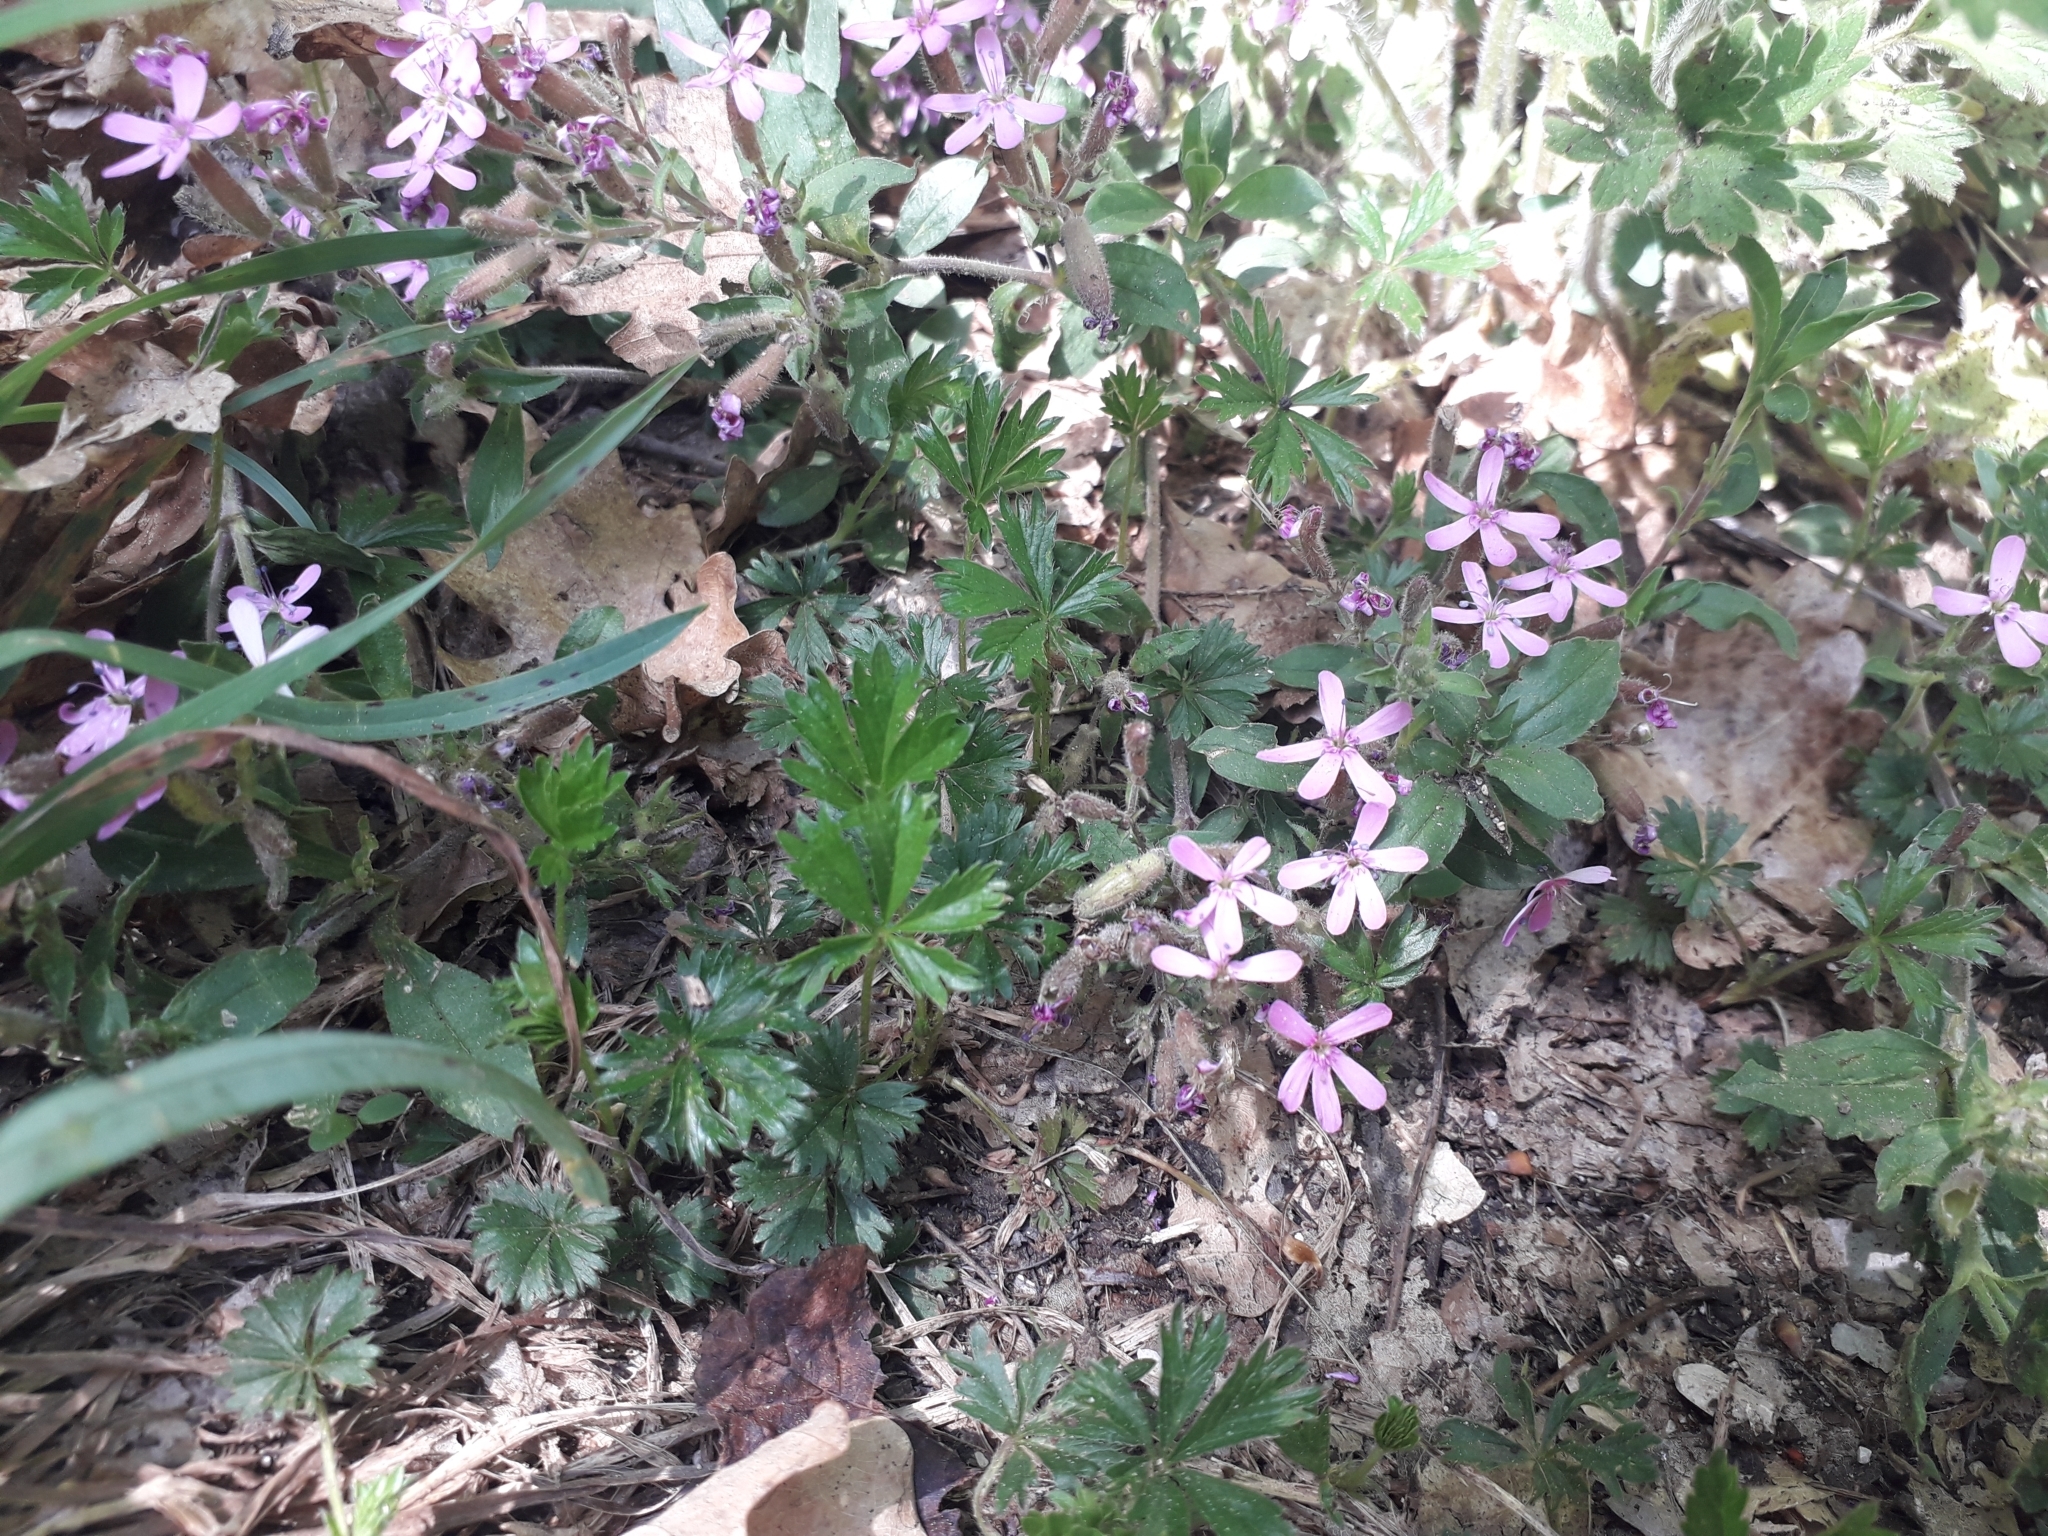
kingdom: Plantae
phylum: Tracheophyta
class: Magnoliopsida
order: Caryophyllales
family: Caryophyllaceae
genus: Saponaria
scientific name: Saponaria ocymoides
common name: Rock soapwort
